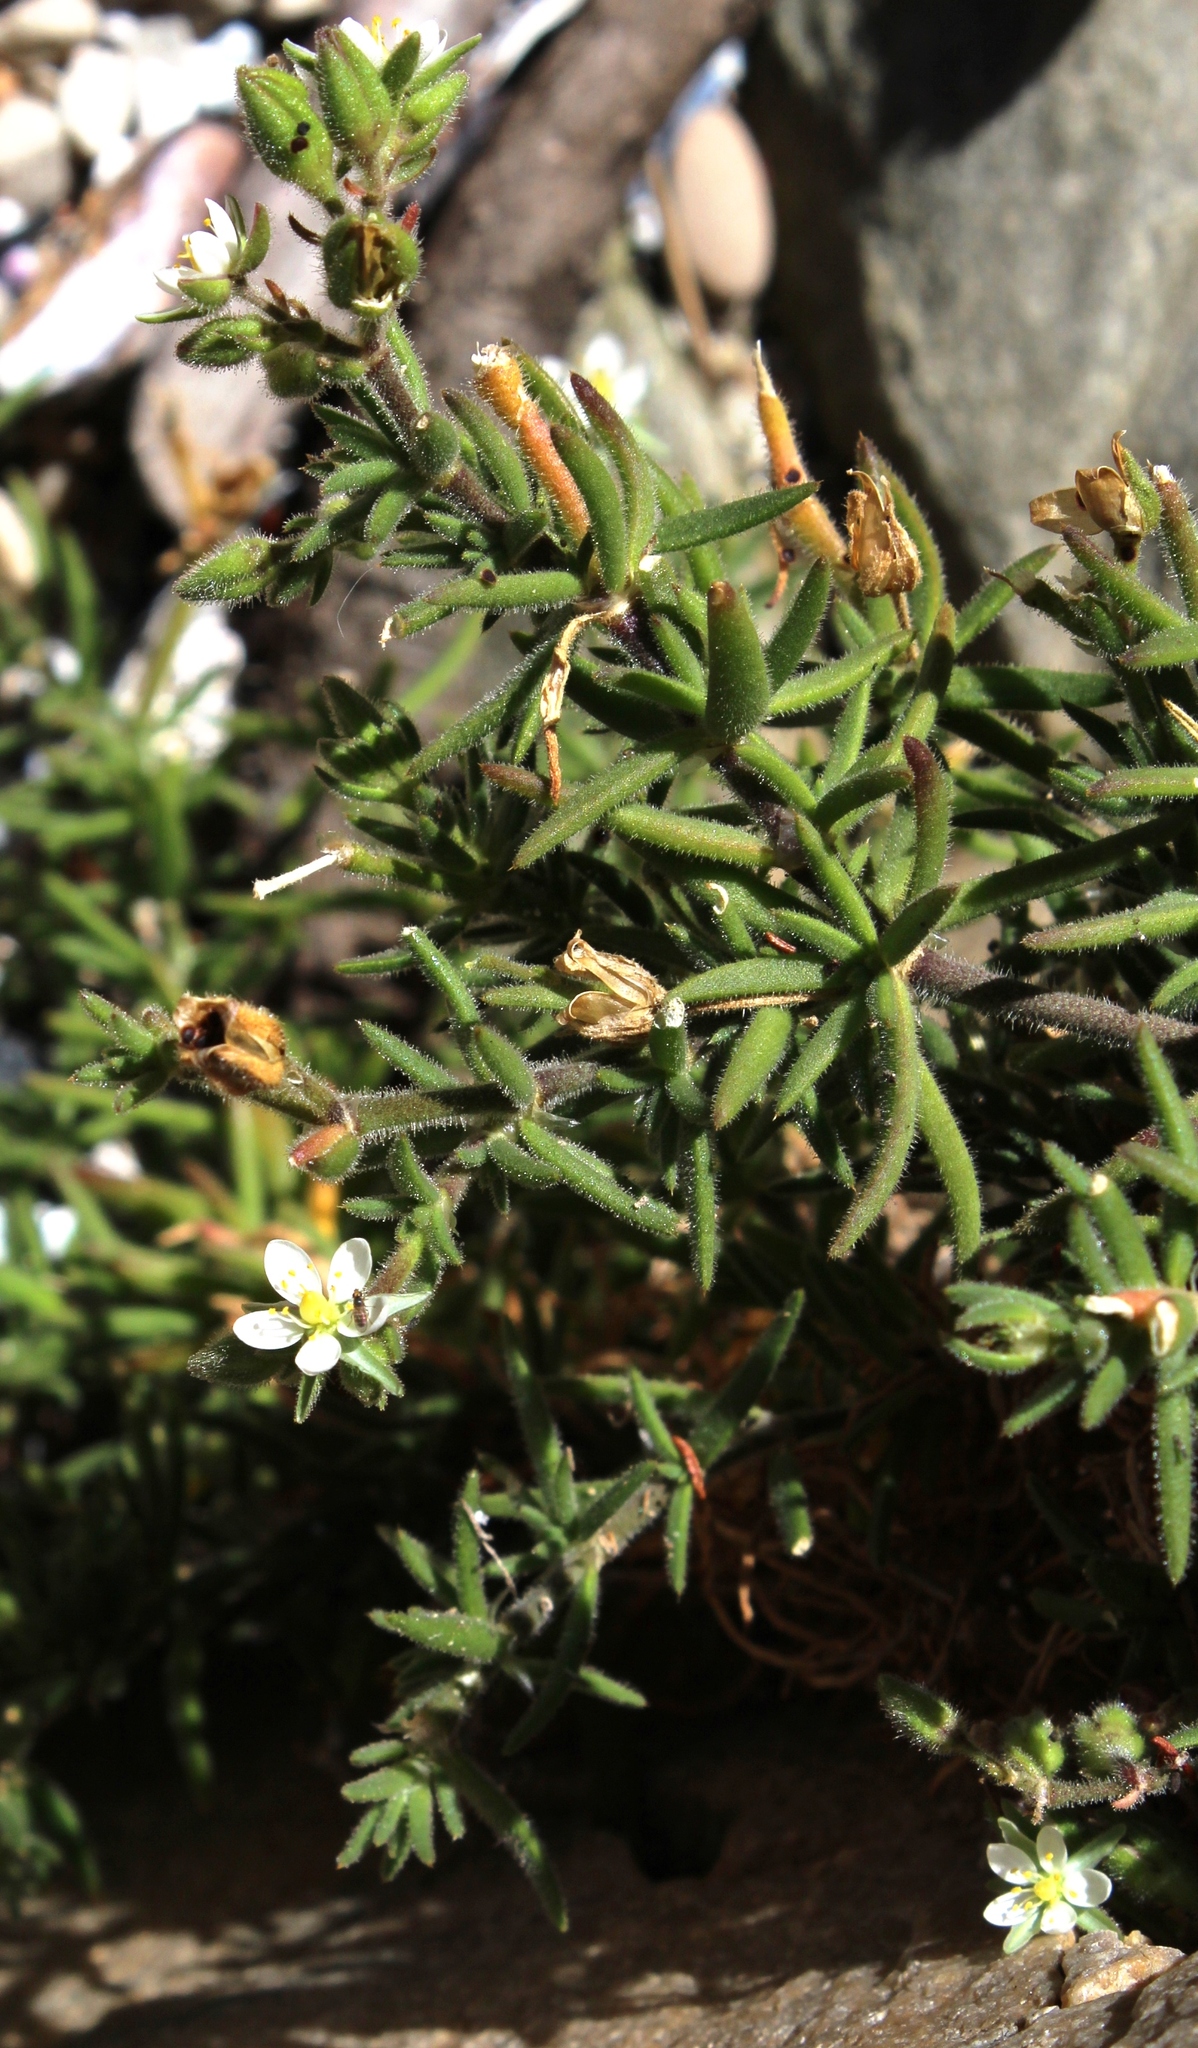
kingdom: Plantae
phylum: Tracheophyta
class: Magnoliopsida
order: Caryophyllales
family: Caryophyllaceae
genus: Spergularia
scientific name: Spergularia media
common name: Greater sea-spurrey
